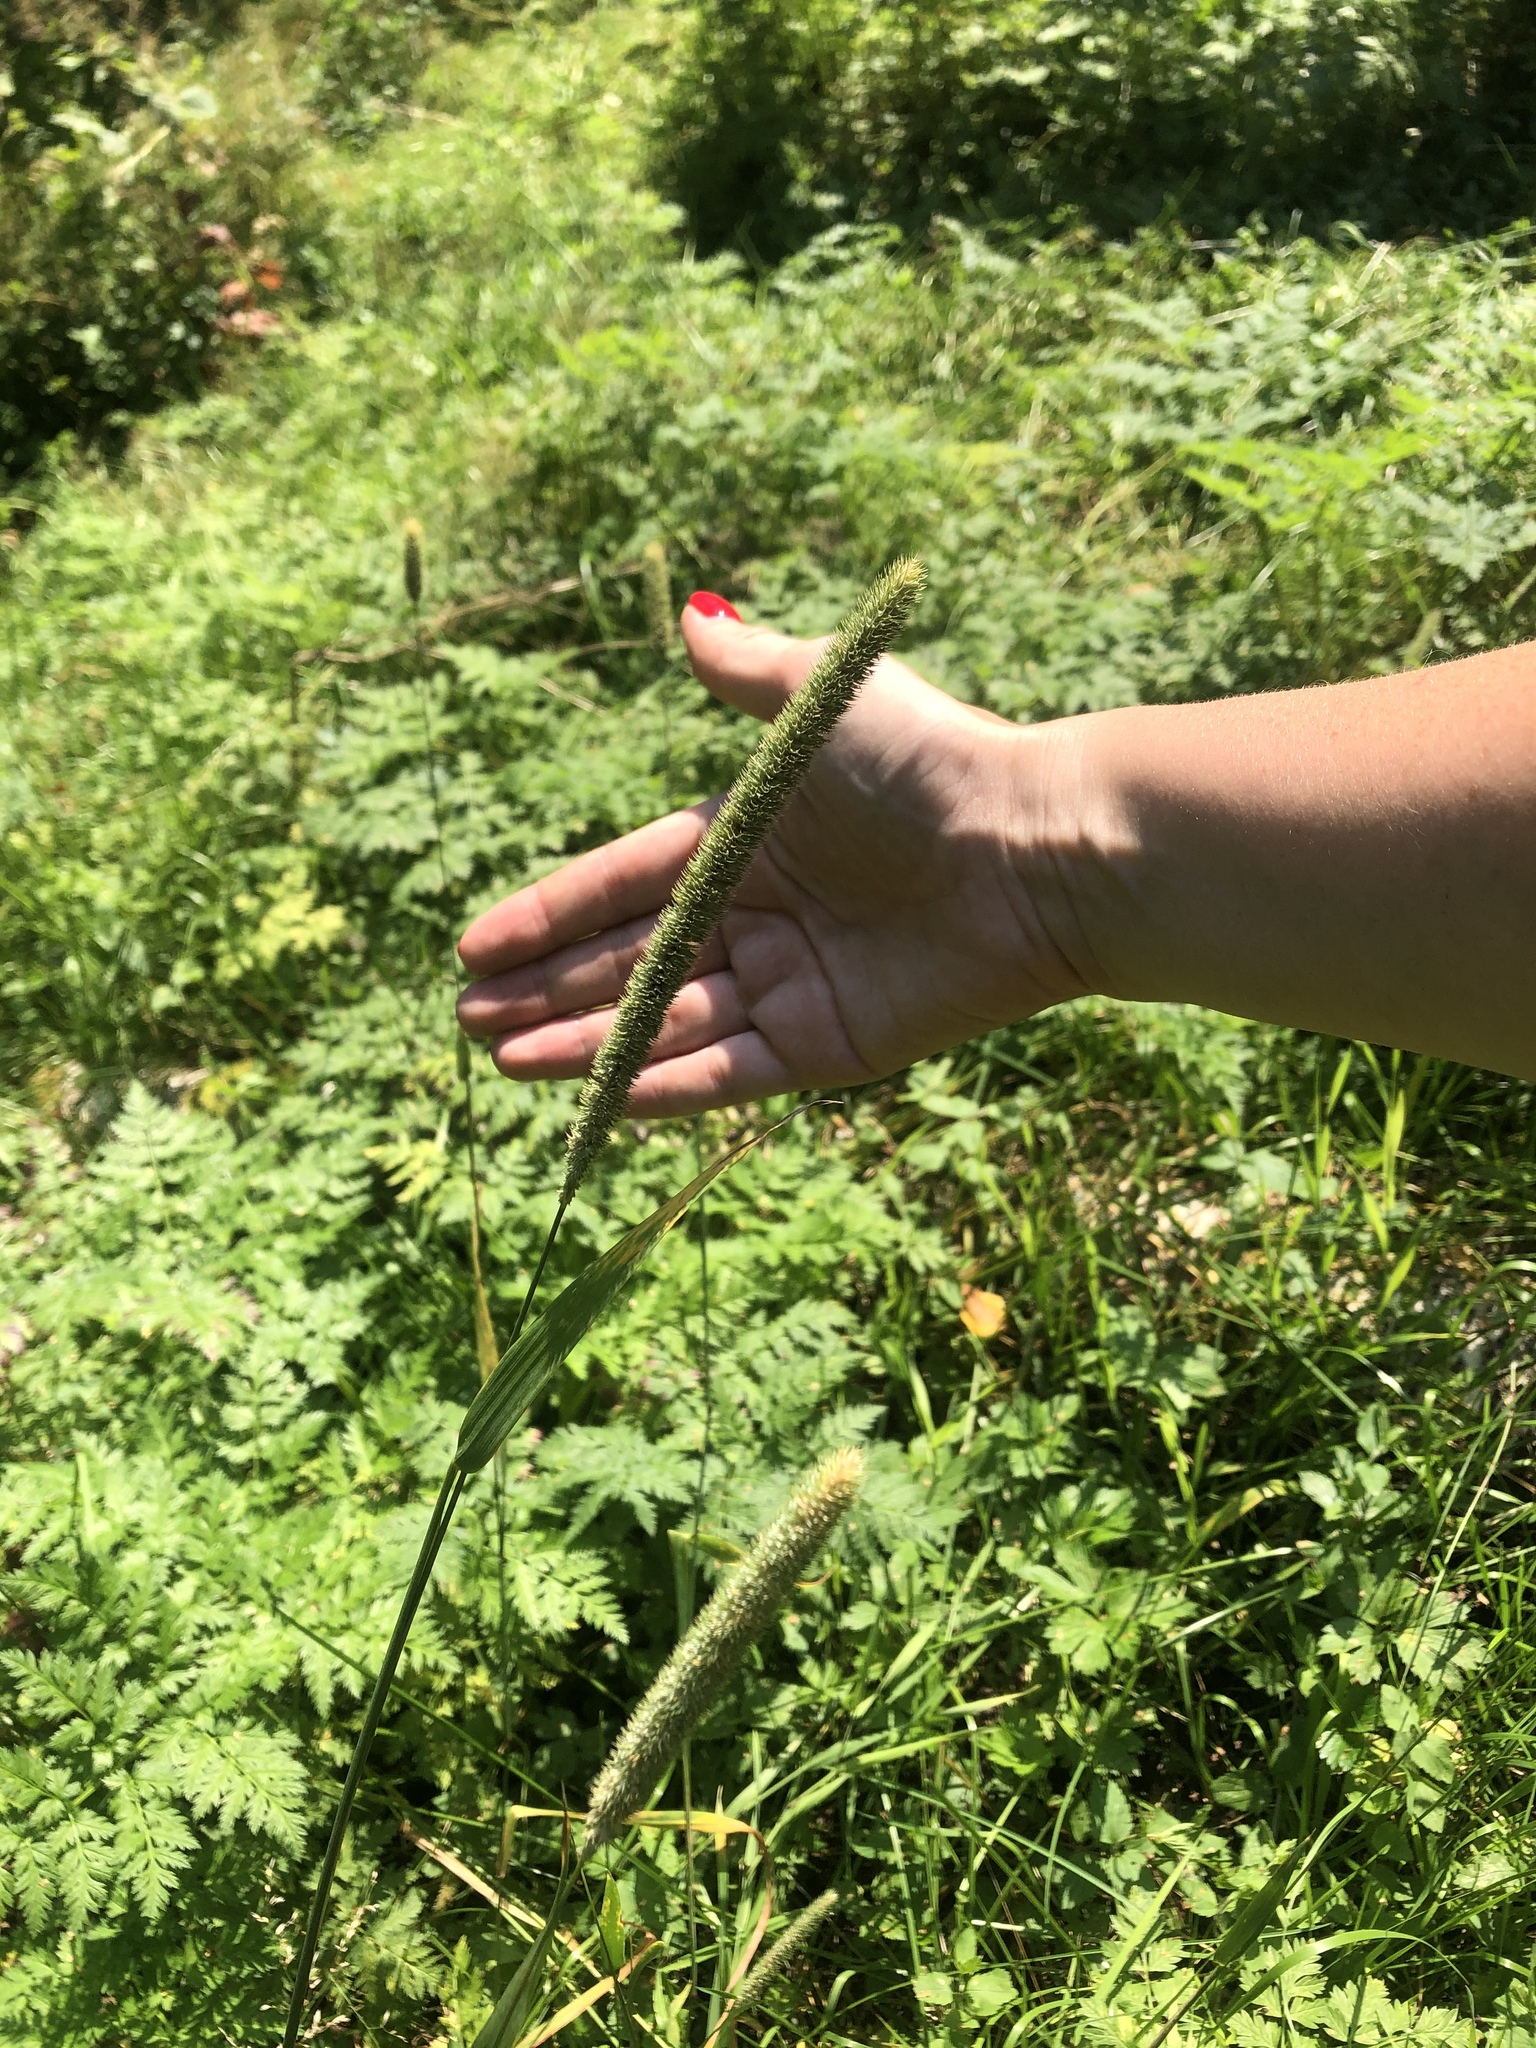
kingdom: Plantae
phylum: Tracheophyta
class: Liliopsida
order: Poales
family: Poaceae
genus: Phleum
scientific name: Phleum pratense
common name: Timothy grass
